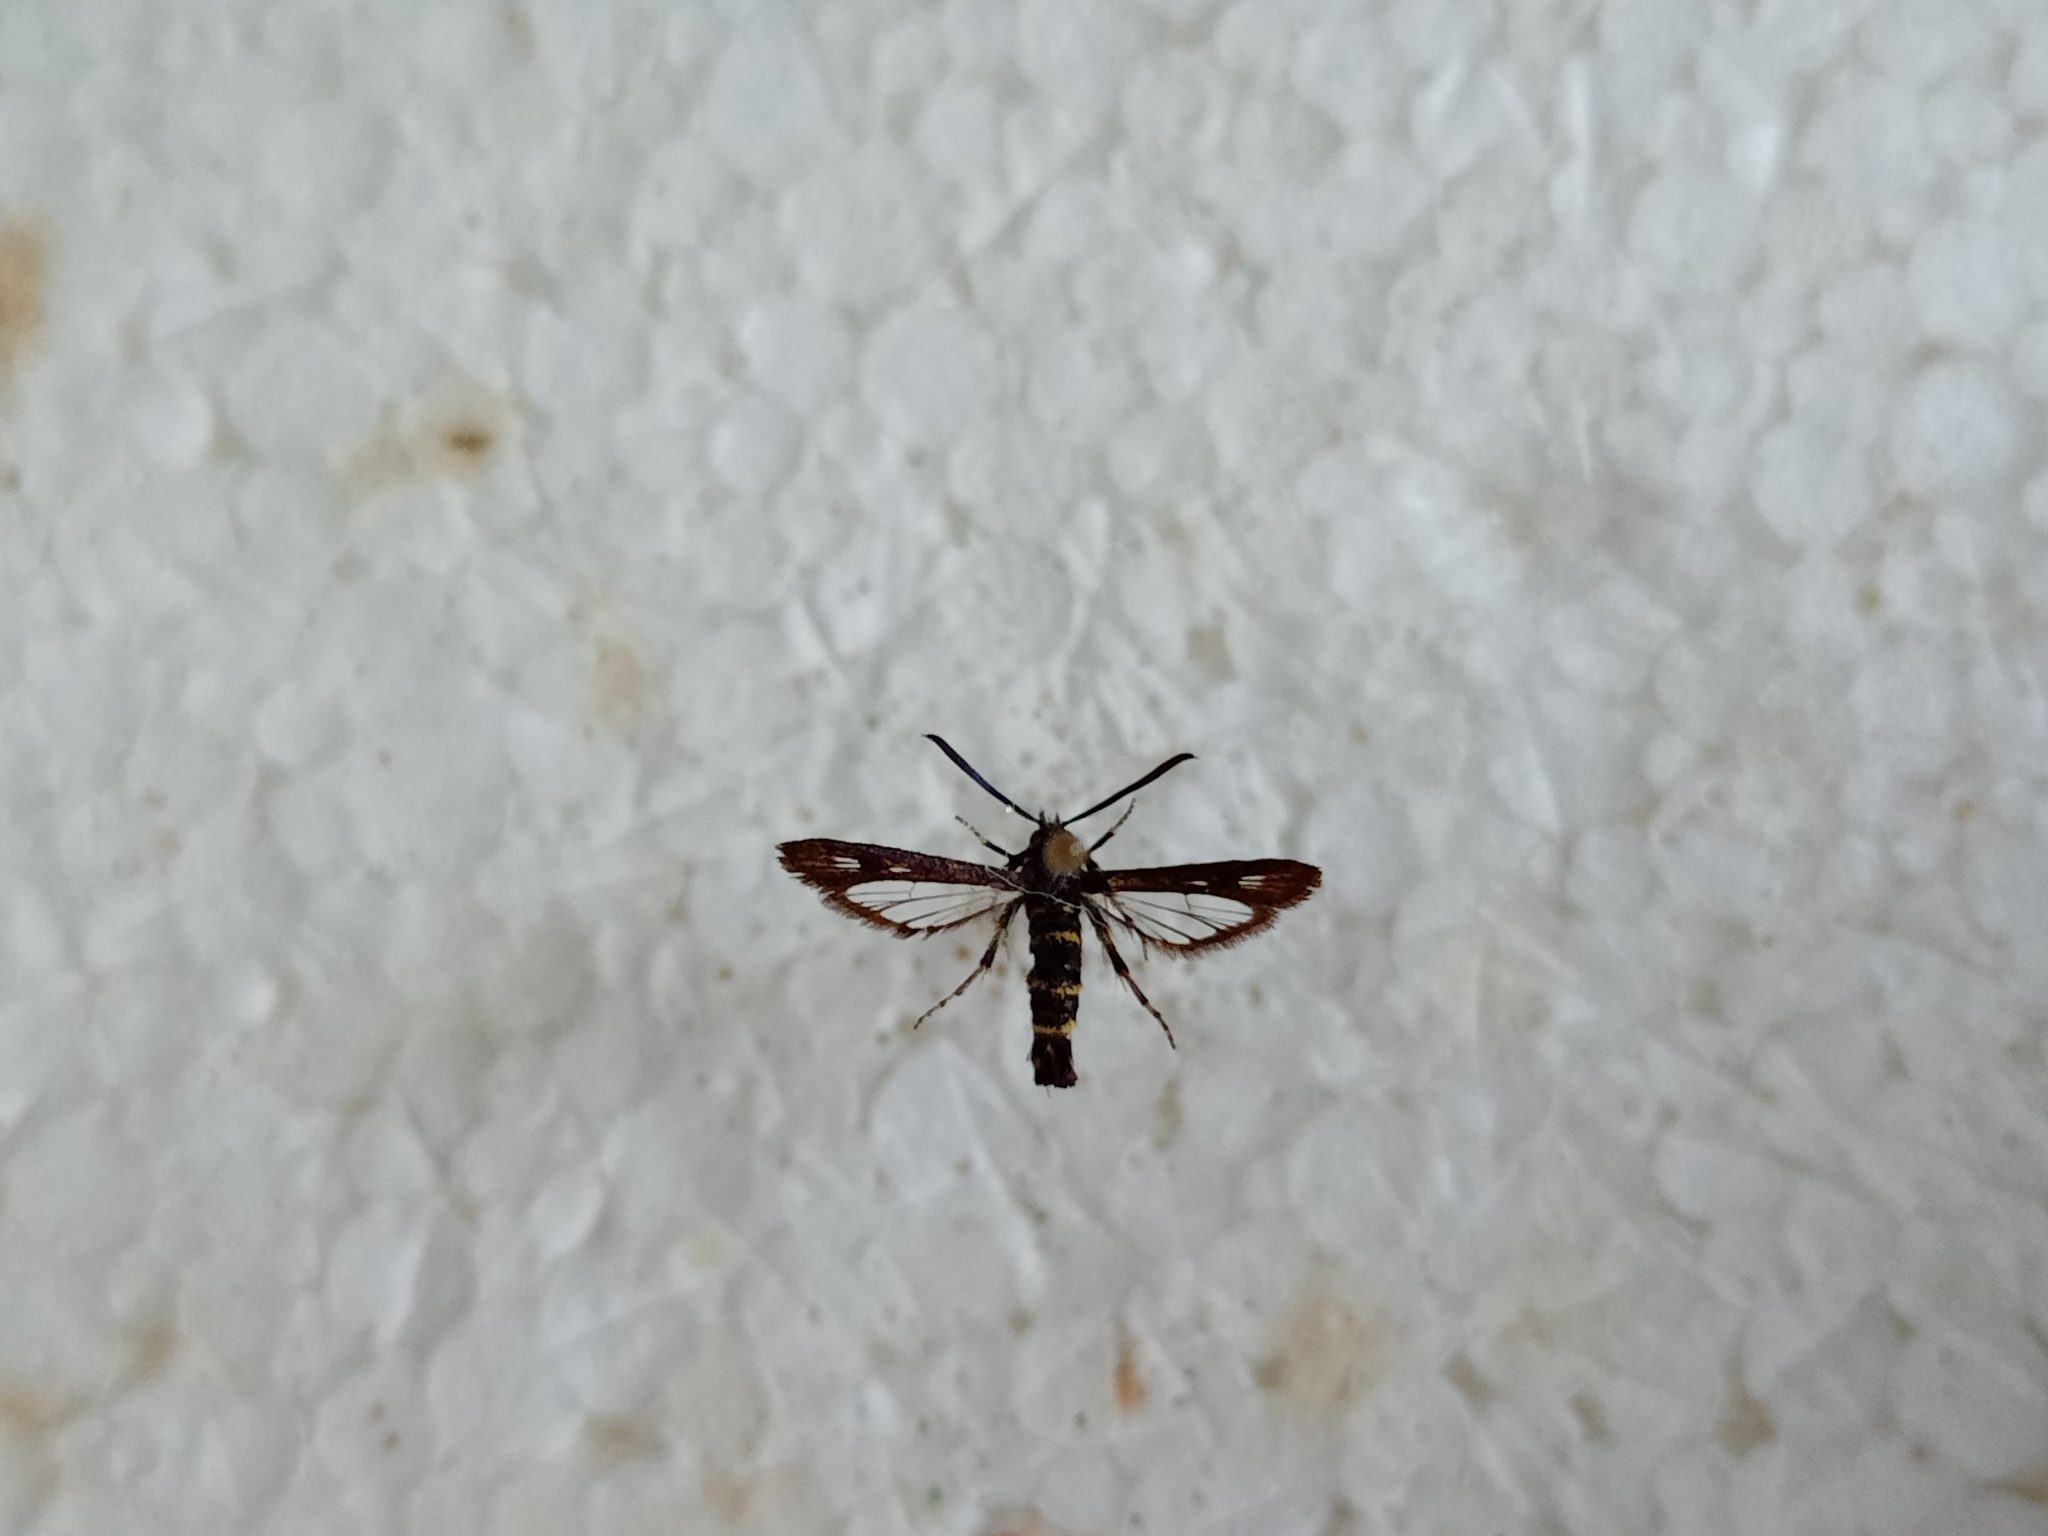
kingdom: Animalia
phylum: Arthropoda
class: Insecta
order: Lepidoptera
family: Sesiidae
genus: Sazonia
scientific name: Sazonia fenusaeformis
